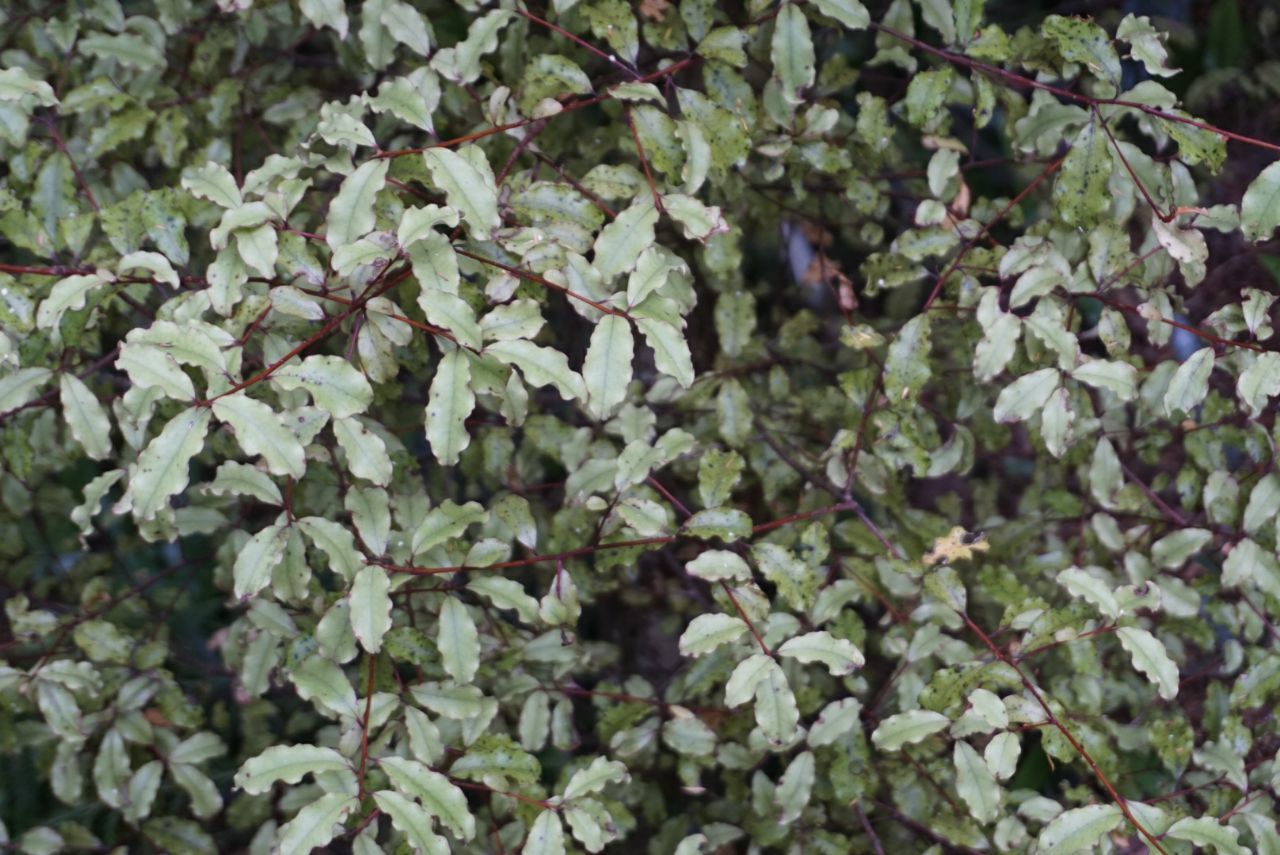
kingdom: Plantae
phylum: Tracheophyta
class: Magnoliopsida
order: Ericales
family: Primulaceae
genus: Myrsine
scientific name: Myrsine australis
